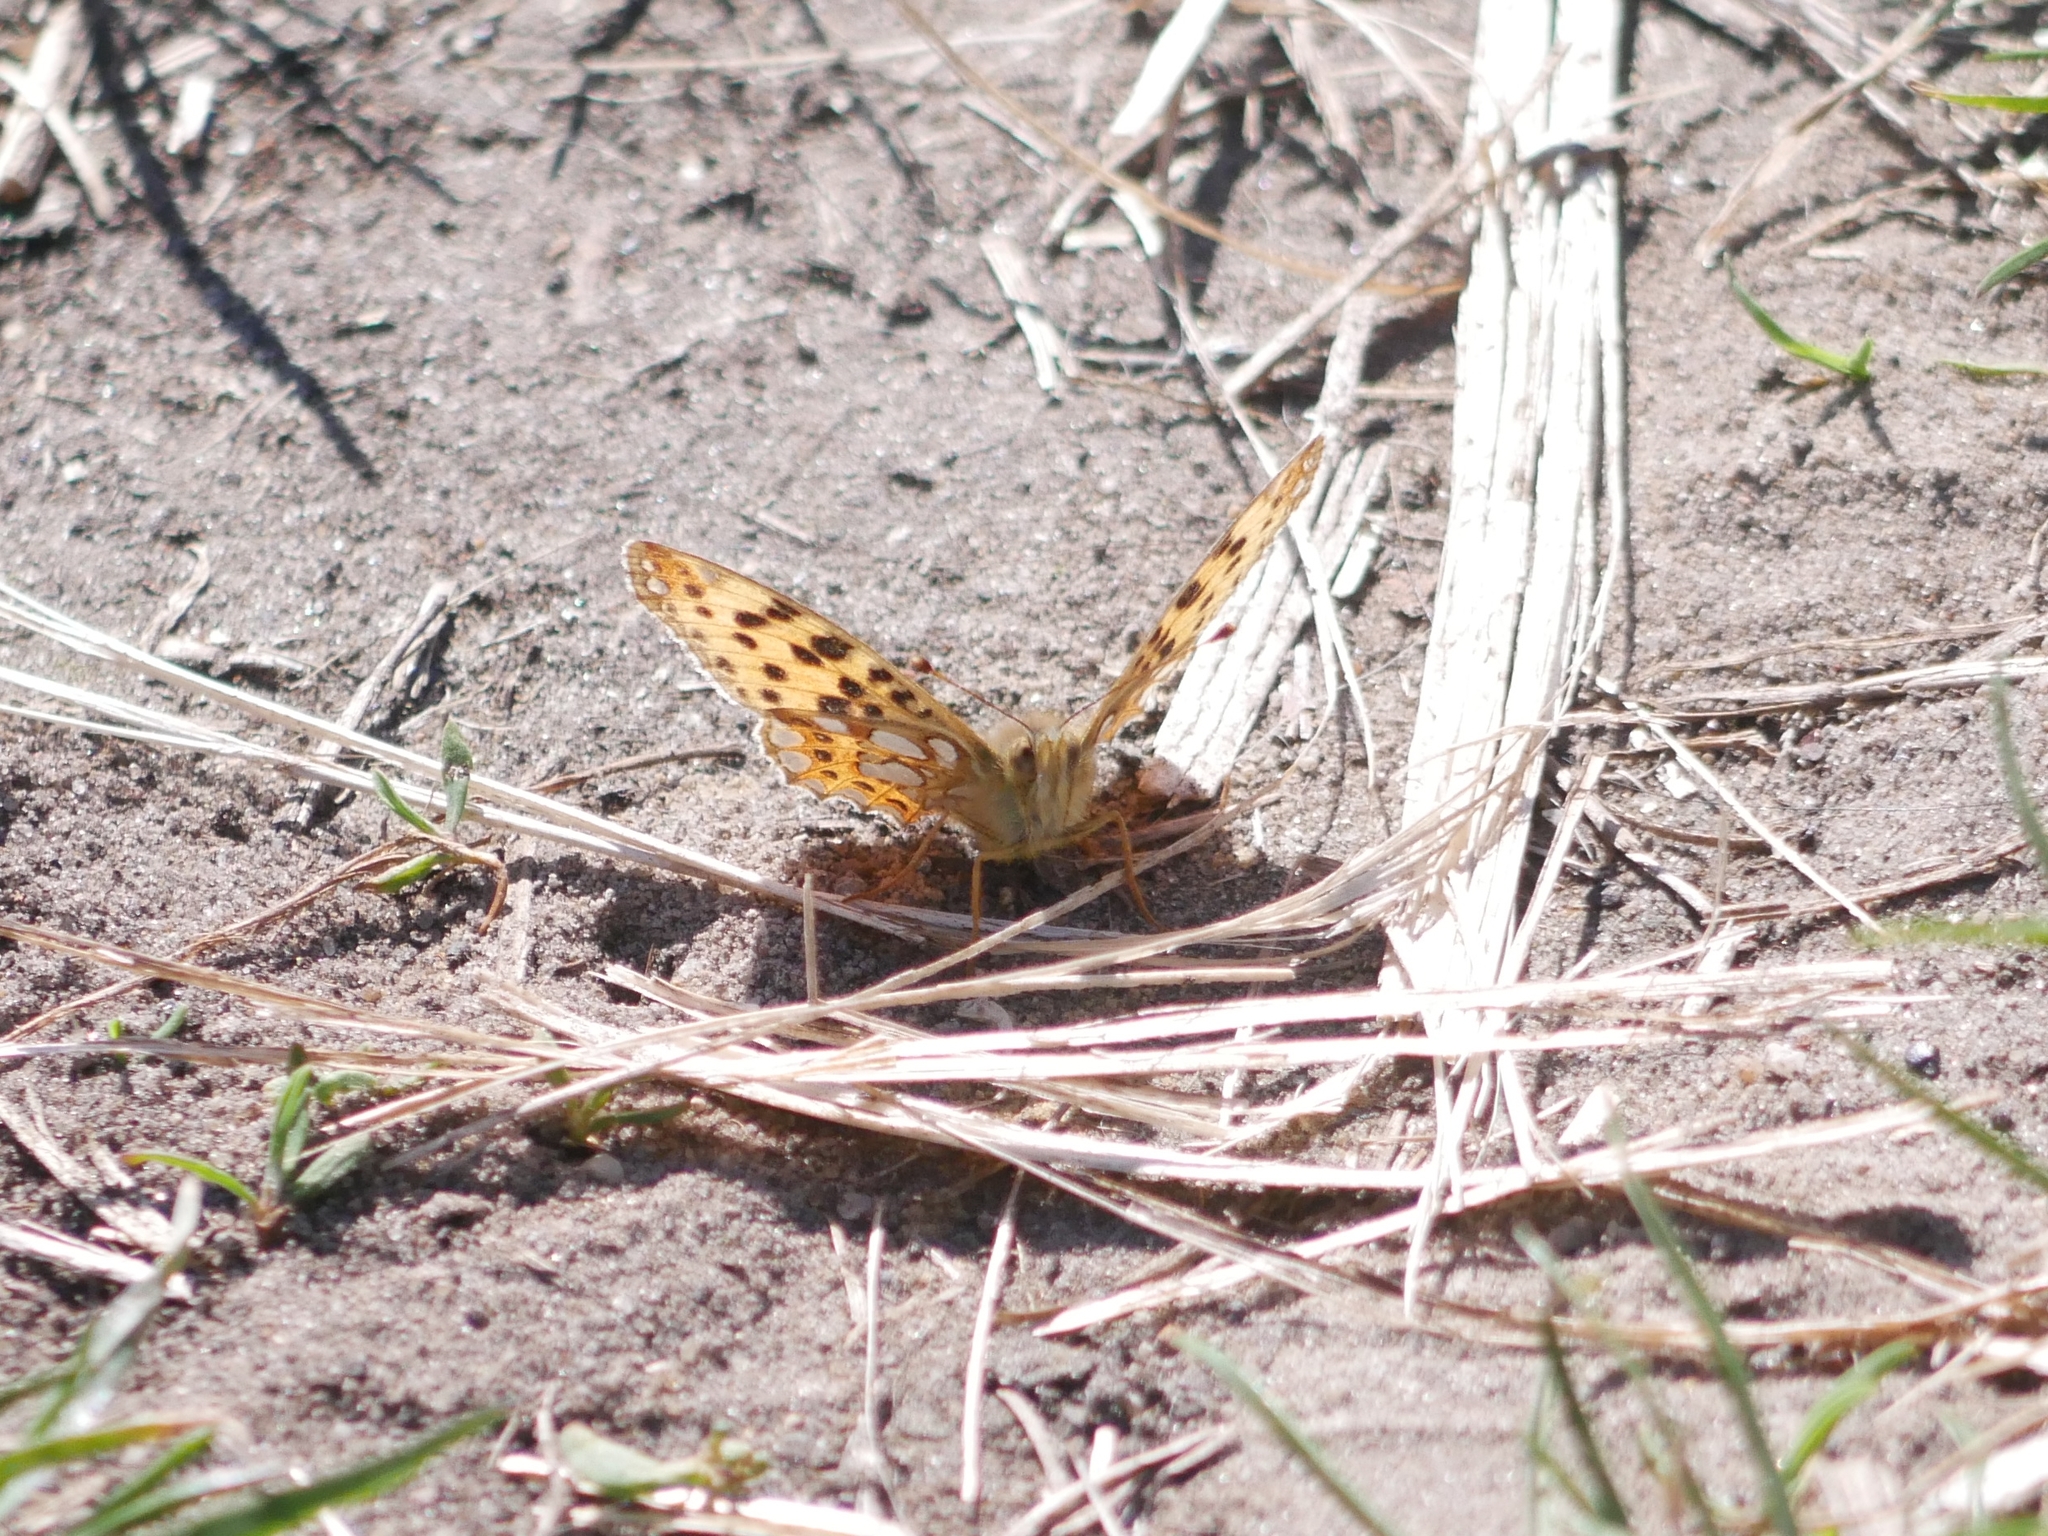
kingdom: Animalia
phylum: Arthropoda
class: Insecta
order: Lepidoptera
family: Nymphalidae
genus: Issoria
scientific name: Issoria lathonia
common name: Queen of spain fritillary
